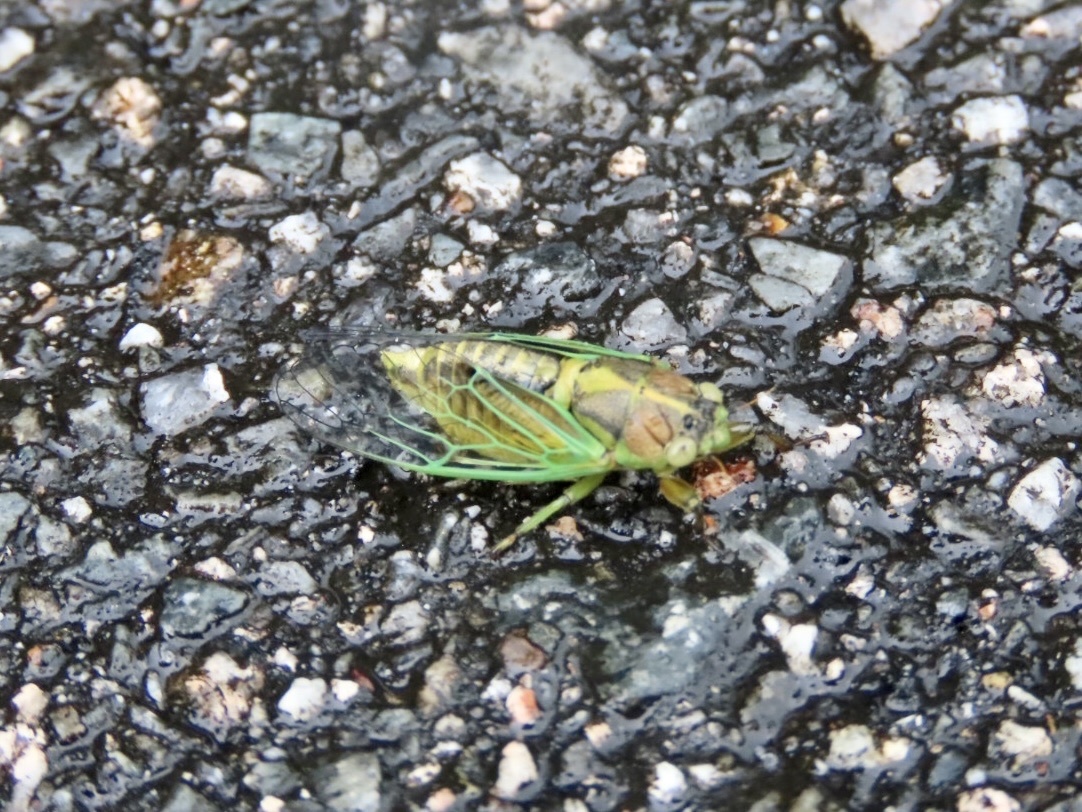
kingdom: Animalia
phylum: Arthropoda
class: Insecta
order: Hemiptera
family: Cicadidae
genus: Mogannia
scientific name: Mogannia hebes
